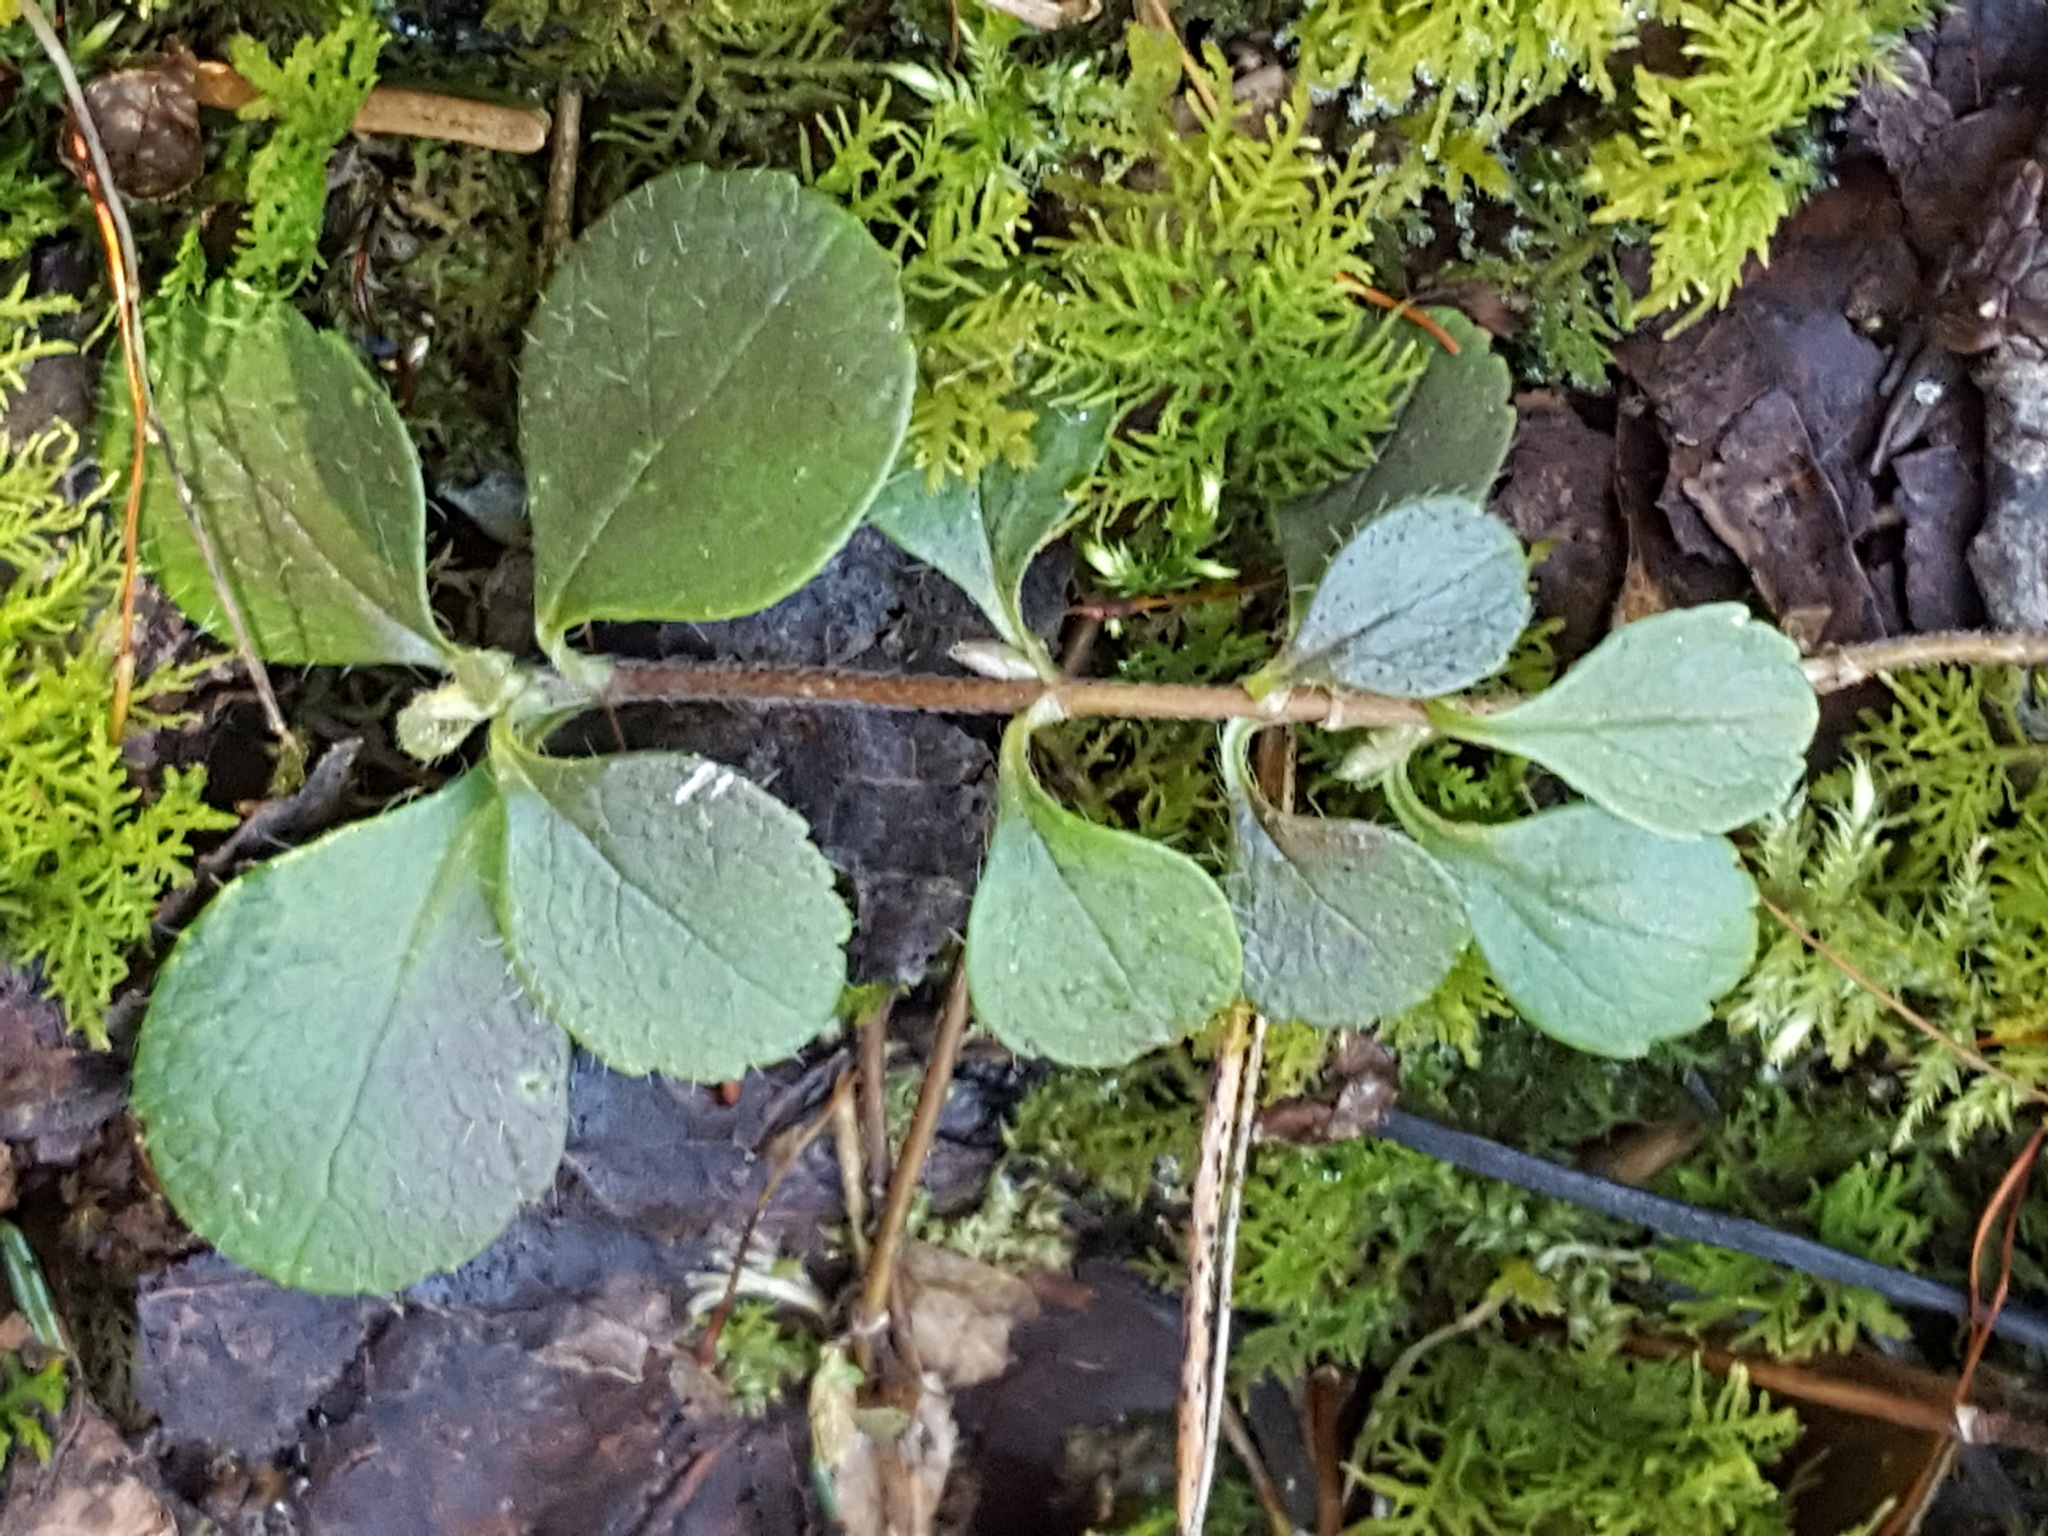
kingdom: Plantae
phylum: Tracheophyta
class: Magnoliopsida
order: Dipsacales
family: Caprifoliaceae
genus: Linnaea
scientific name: Linnaea borealis
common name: Twinflower
